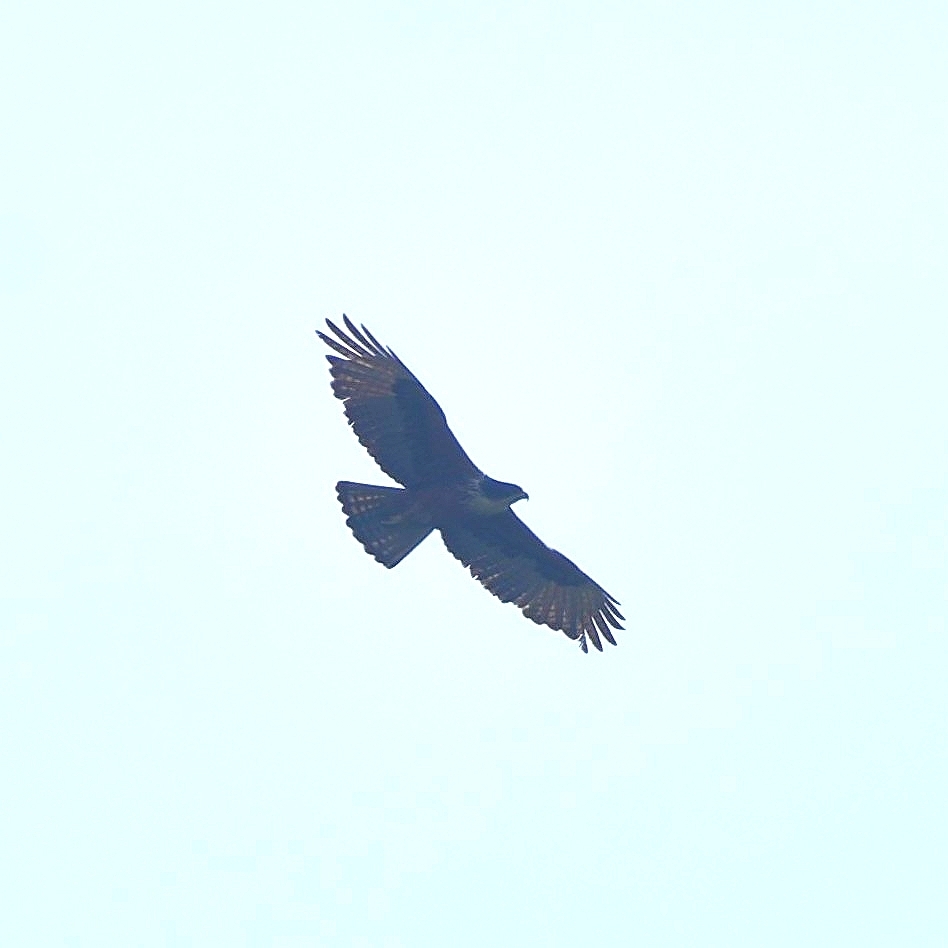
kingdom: Animalia
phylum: Chordata
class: Aves
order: Accipitriformes
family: Accipitridae
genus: Lophotriorchis
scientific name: Lophotriorchis kienerii
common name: Rufous-bellied eagle
